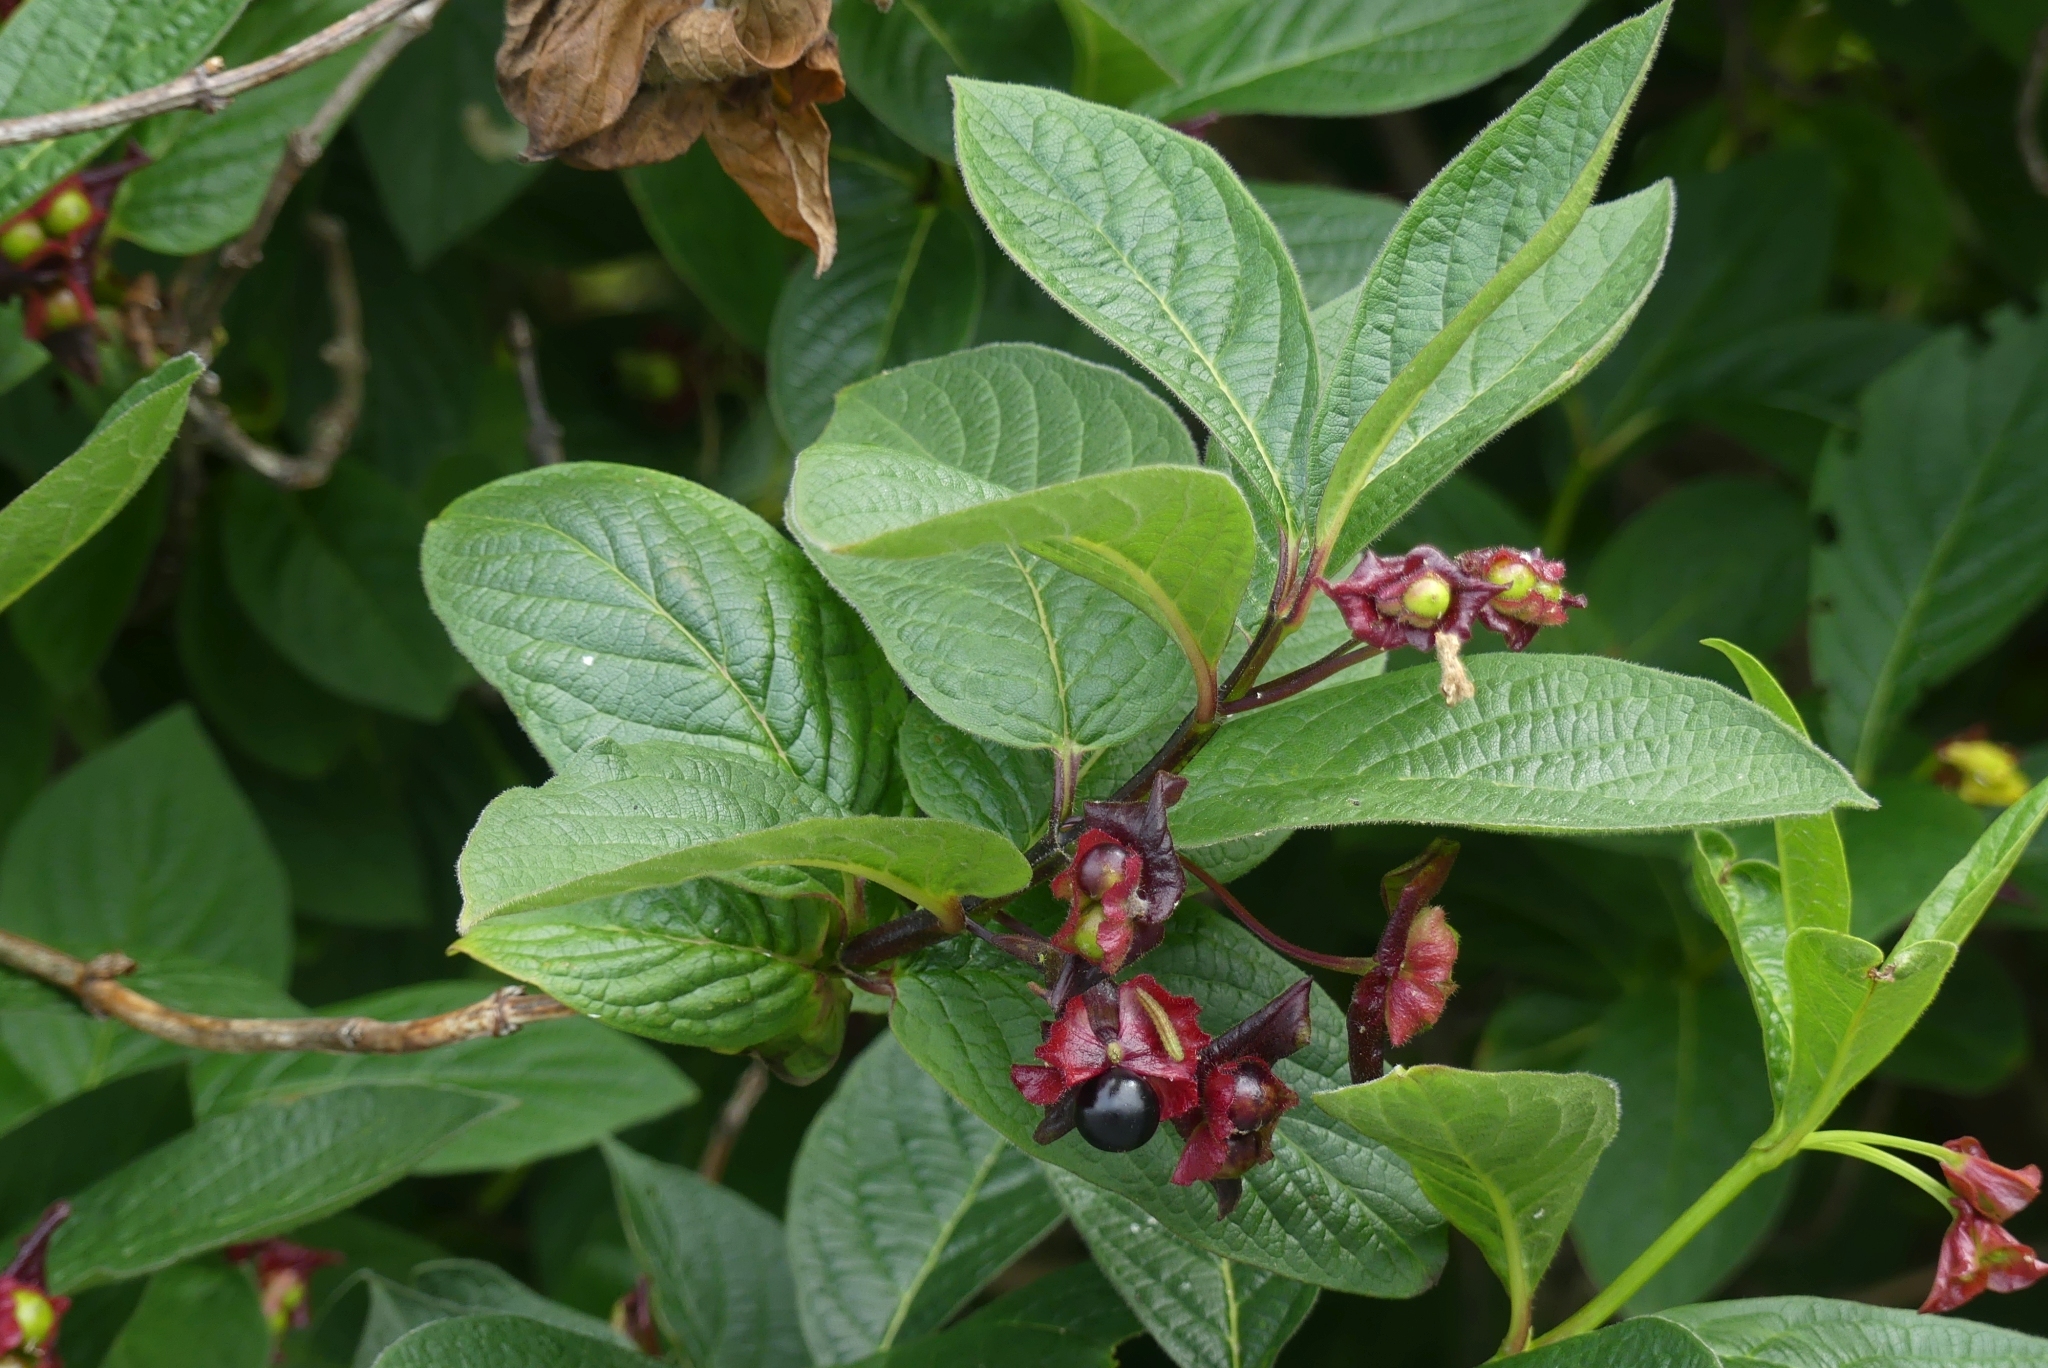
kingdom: Plantae
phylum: Tracheophyta
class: Magnoliopsida
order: Dipsacales
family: Caprifoliaceae
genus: Lonicera
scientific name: Lonicera involucrata
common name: Californian honeysuckle
